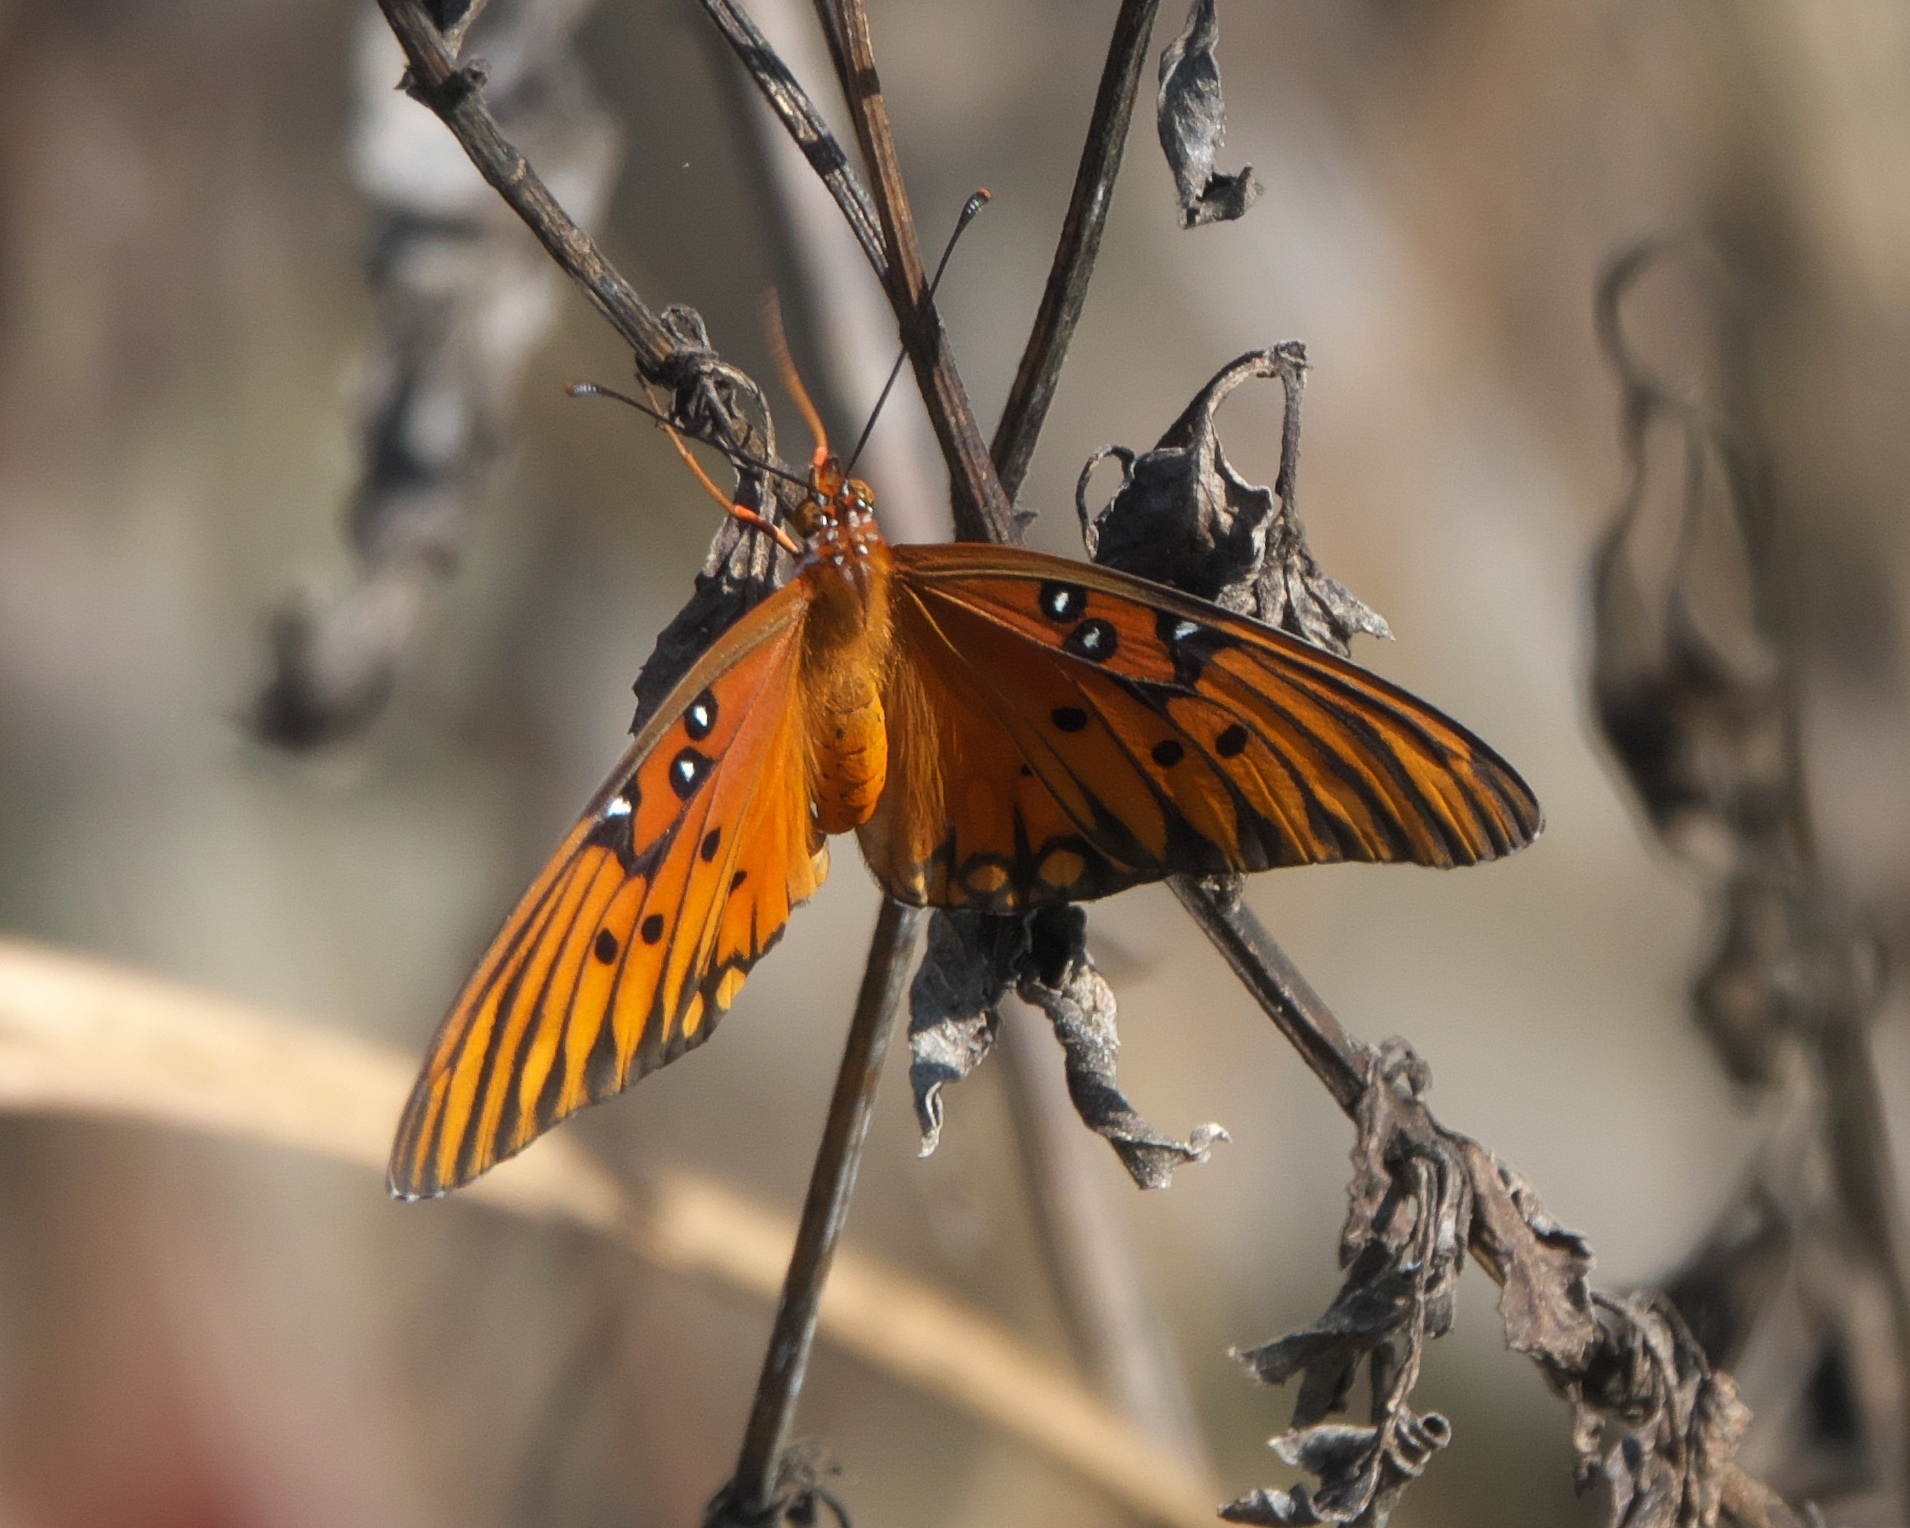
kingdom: Animalia
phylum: Arthropoda
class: Insecta
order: Lepidoptera
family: Nymphalidae
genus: Dione
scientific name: Dione vanillae
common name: Gulf fritillary
